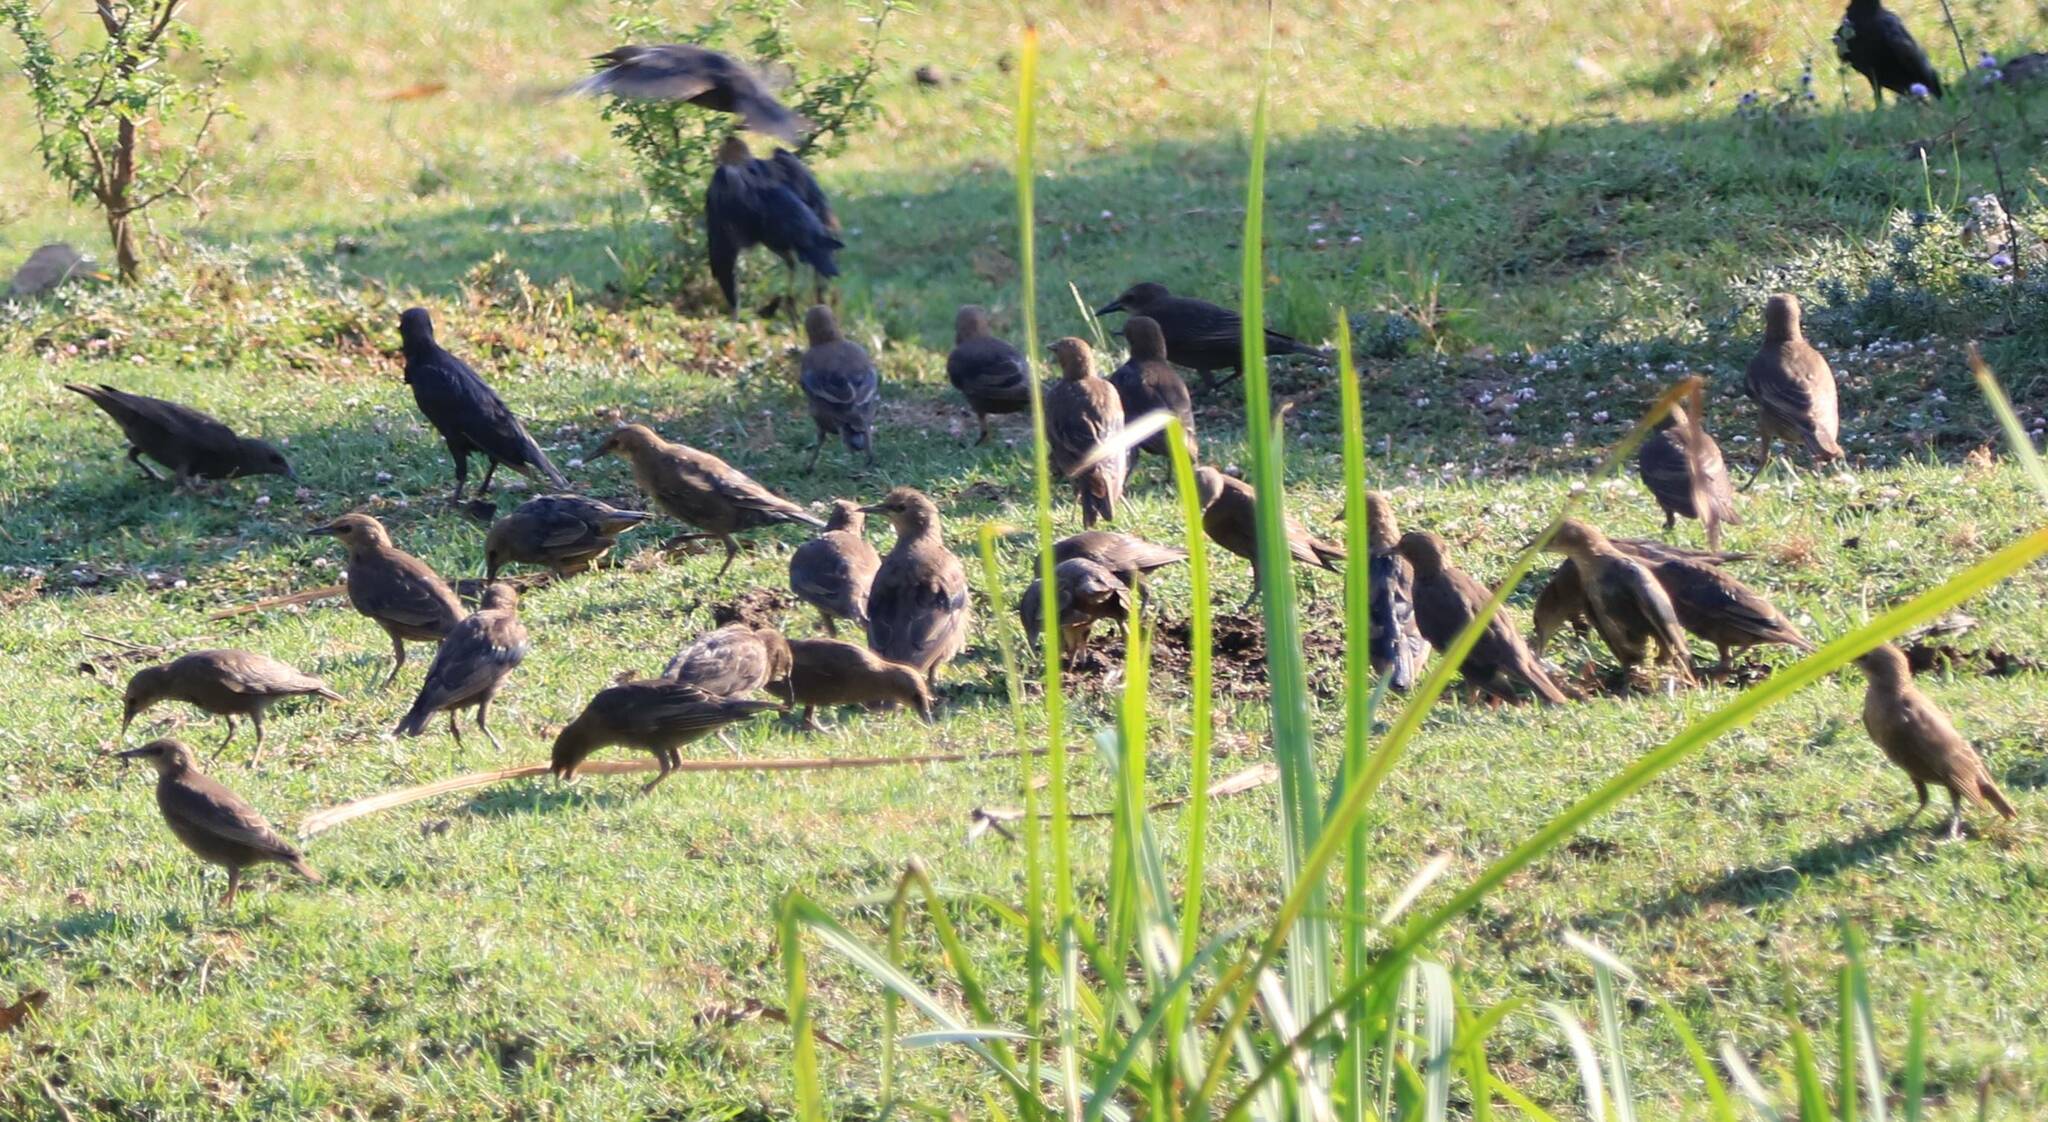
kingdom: Animalia
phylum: Chordata
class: Aves
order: Passeriformes
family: Sturnidae
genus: Sturnus
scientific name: Sturnus unicolor
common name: Spotless starling
